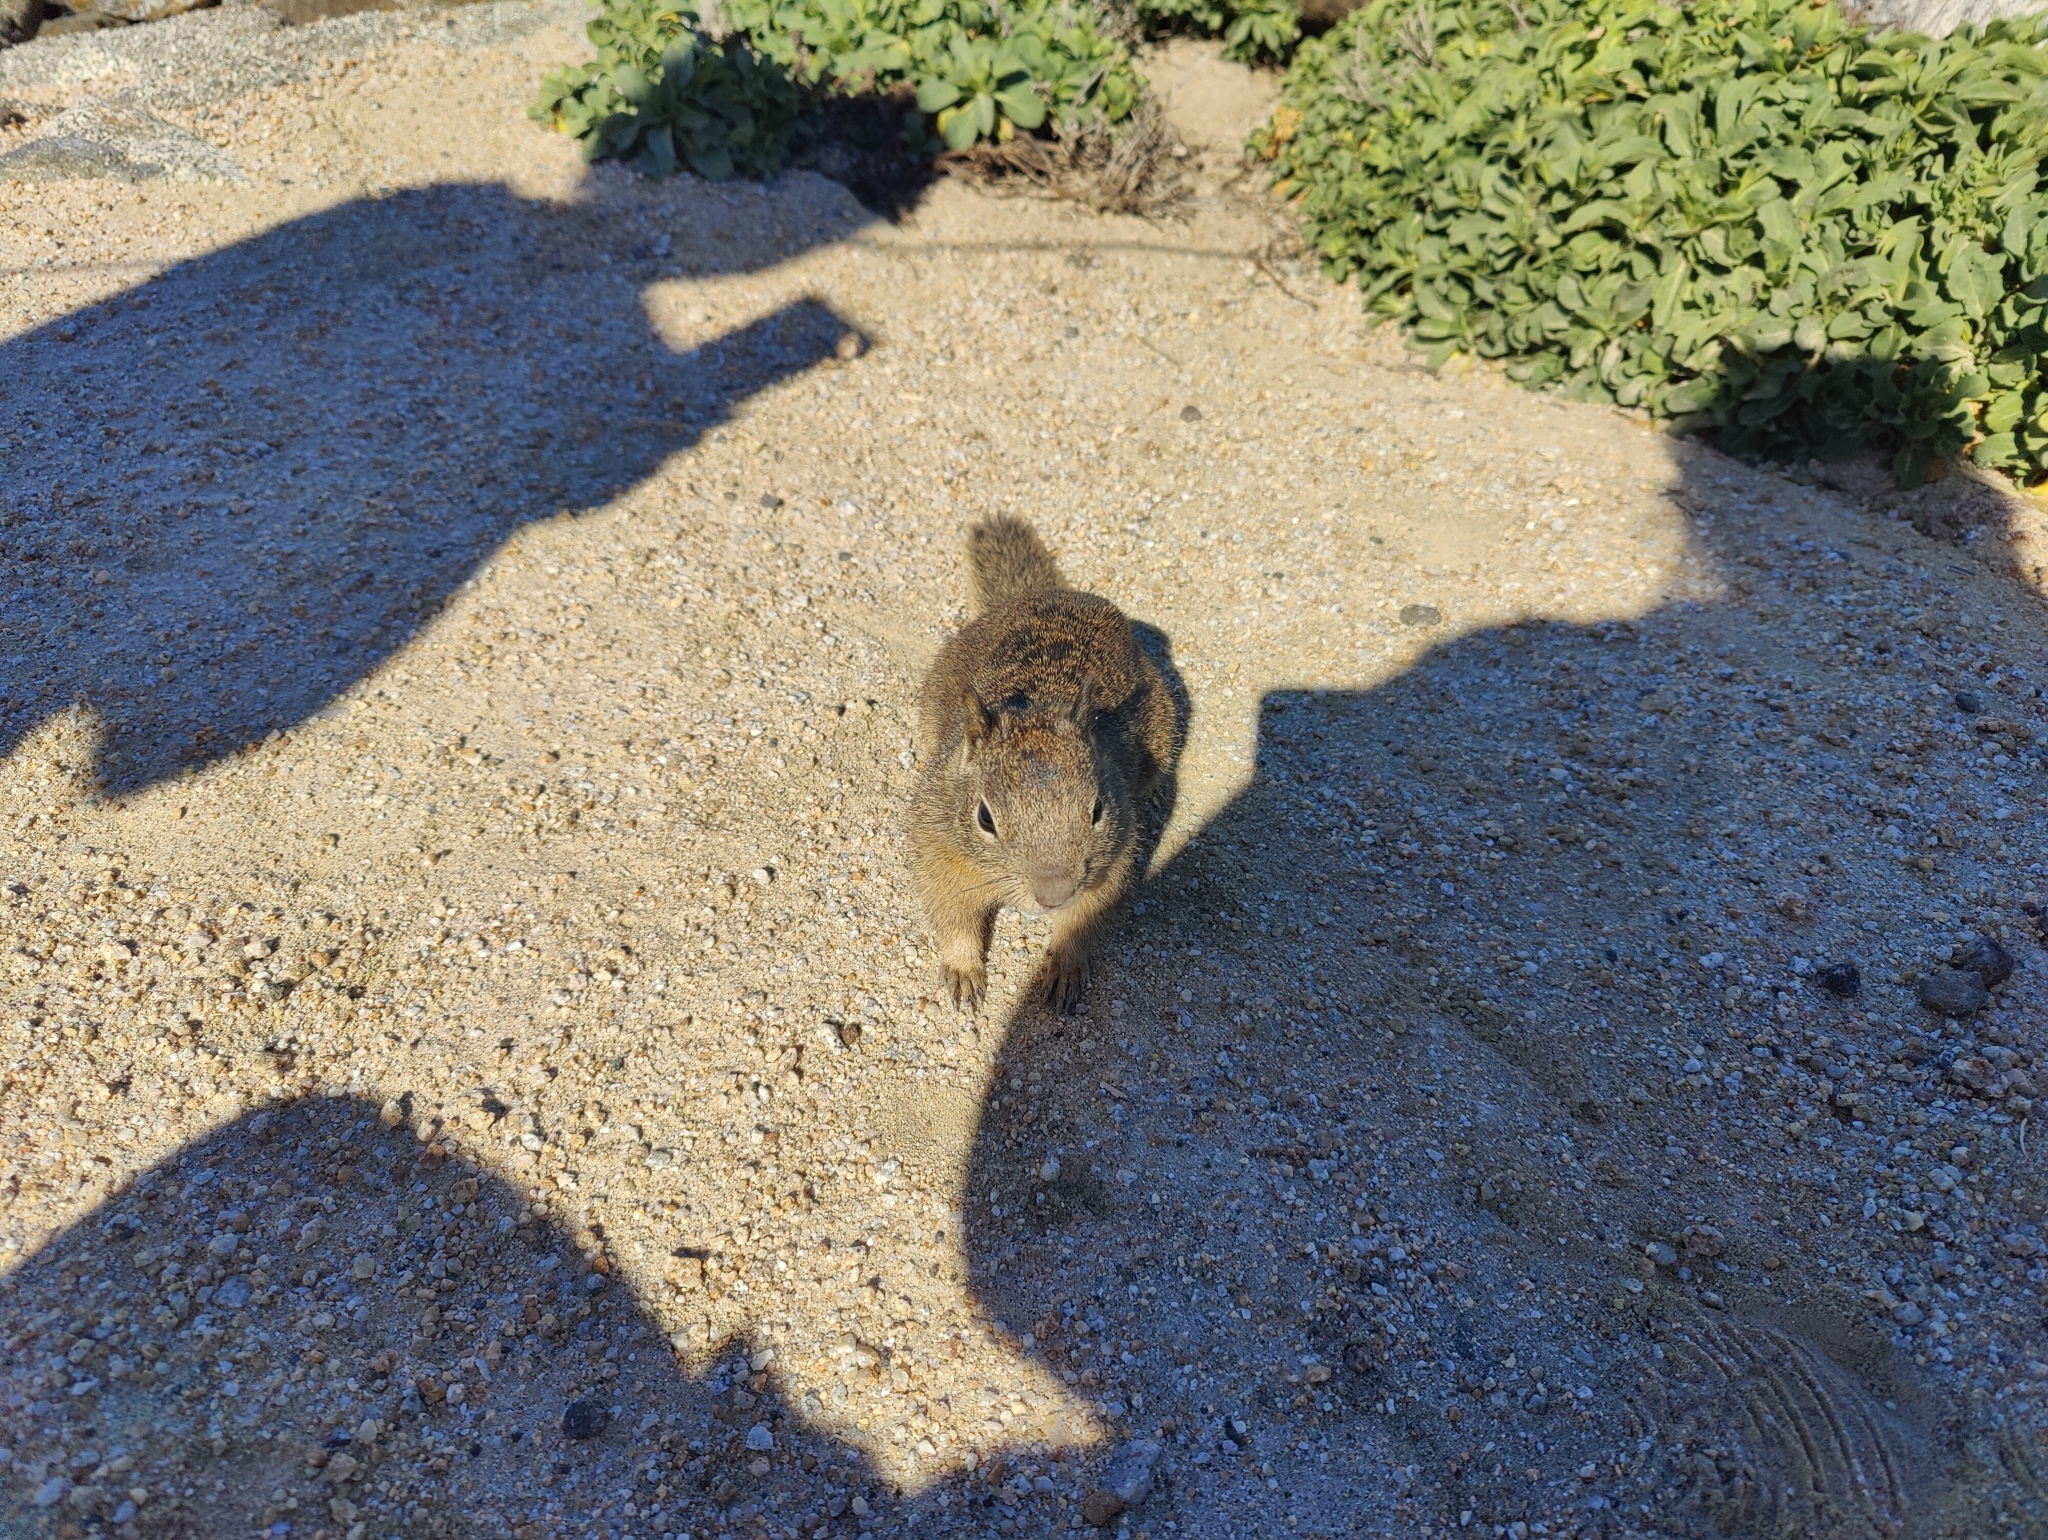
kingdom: Animalia
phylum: Chordata
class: Mammalia
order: Rodentia
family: Sciuridae
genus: Otospermophilus
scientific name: Otospermophilus beecheyi
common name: California ground squirrel
